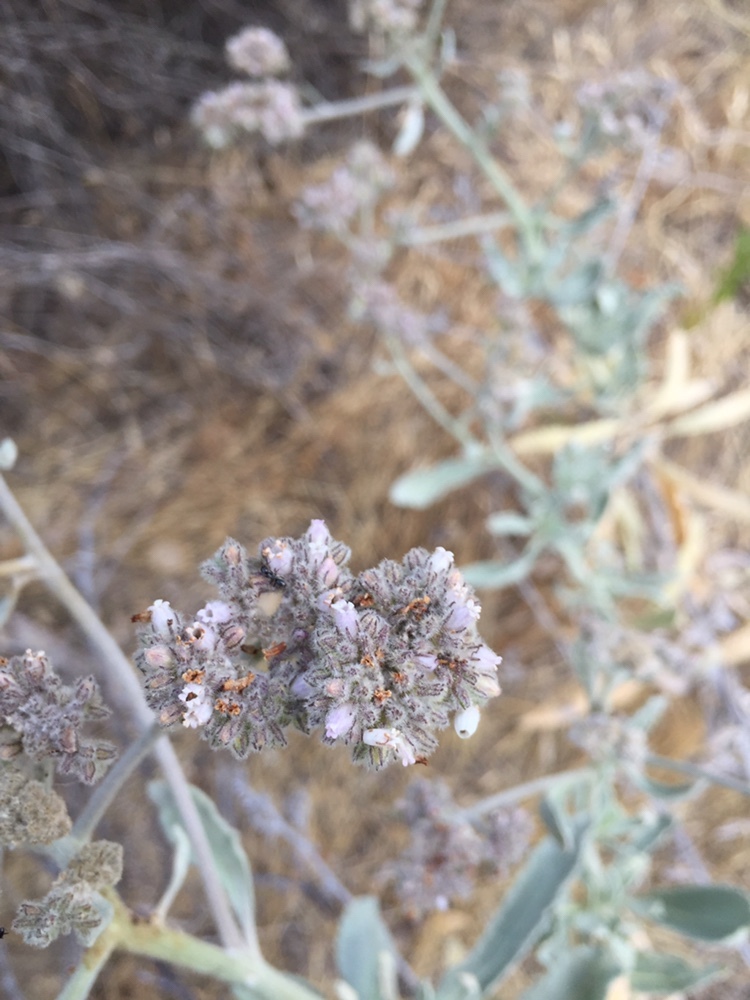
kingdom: Plantae
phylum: Tracheophyta
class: Magnoliopsida
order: Boraginales
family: Namaceae
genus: Eriodictyon
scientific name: Eriodictyon tomentosum
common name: Woolly yerba-santa
